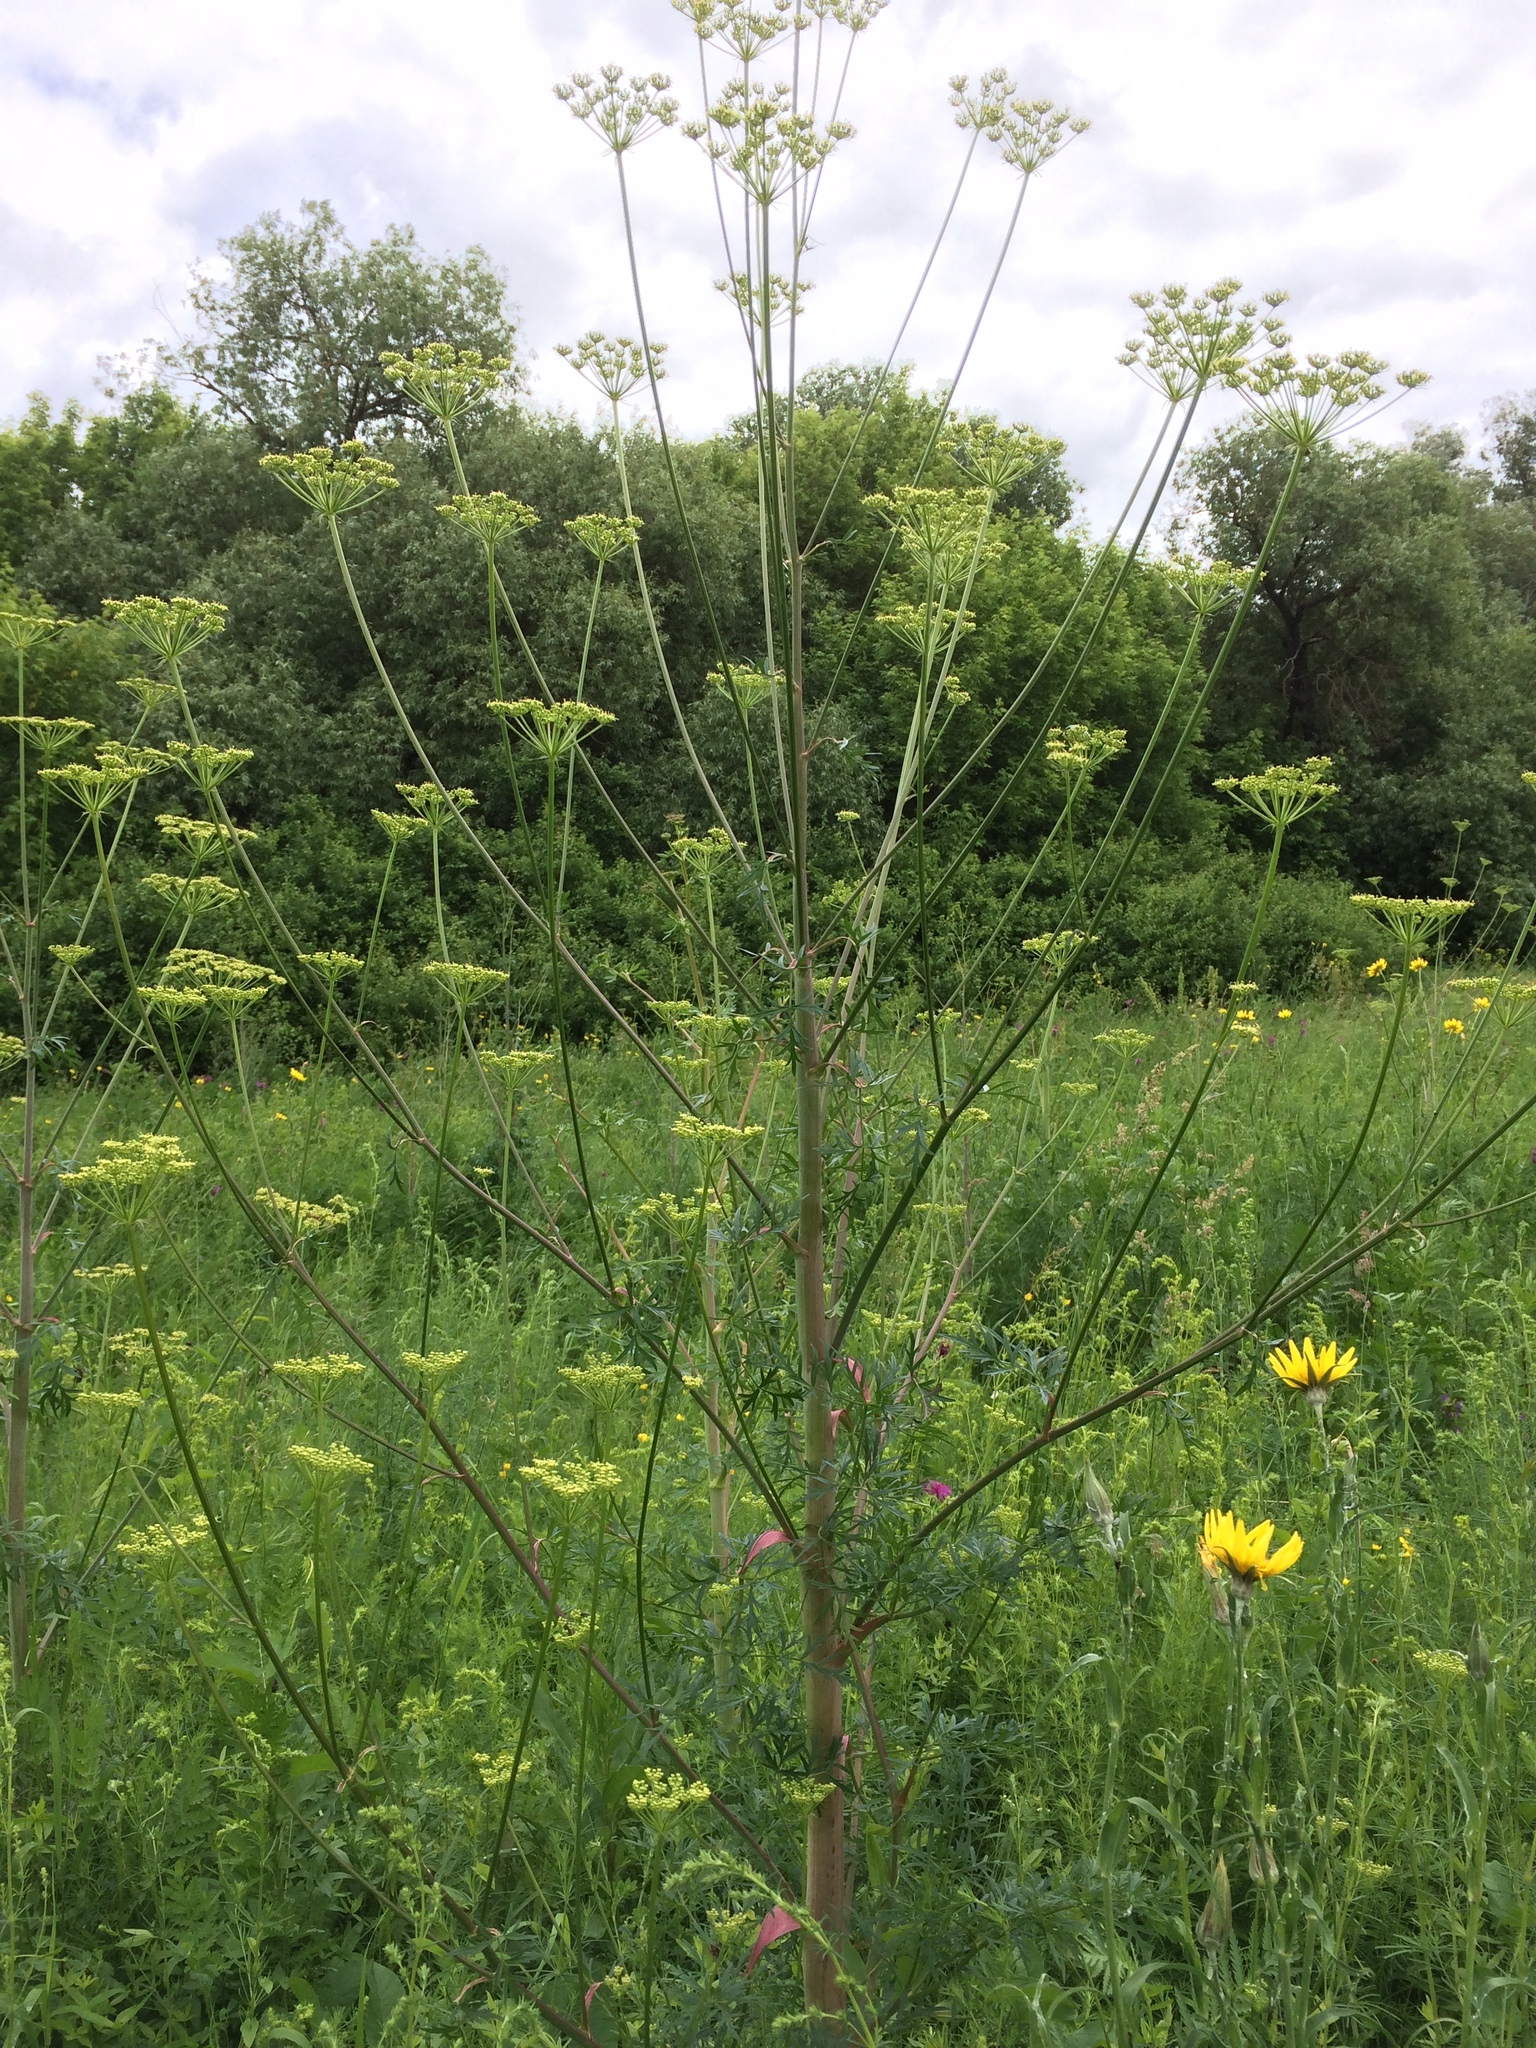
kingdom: Plantae
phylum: Tracheophyta
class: Magnoliopsida
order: Apiales
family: Apiaceae
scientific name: Apiaceae
